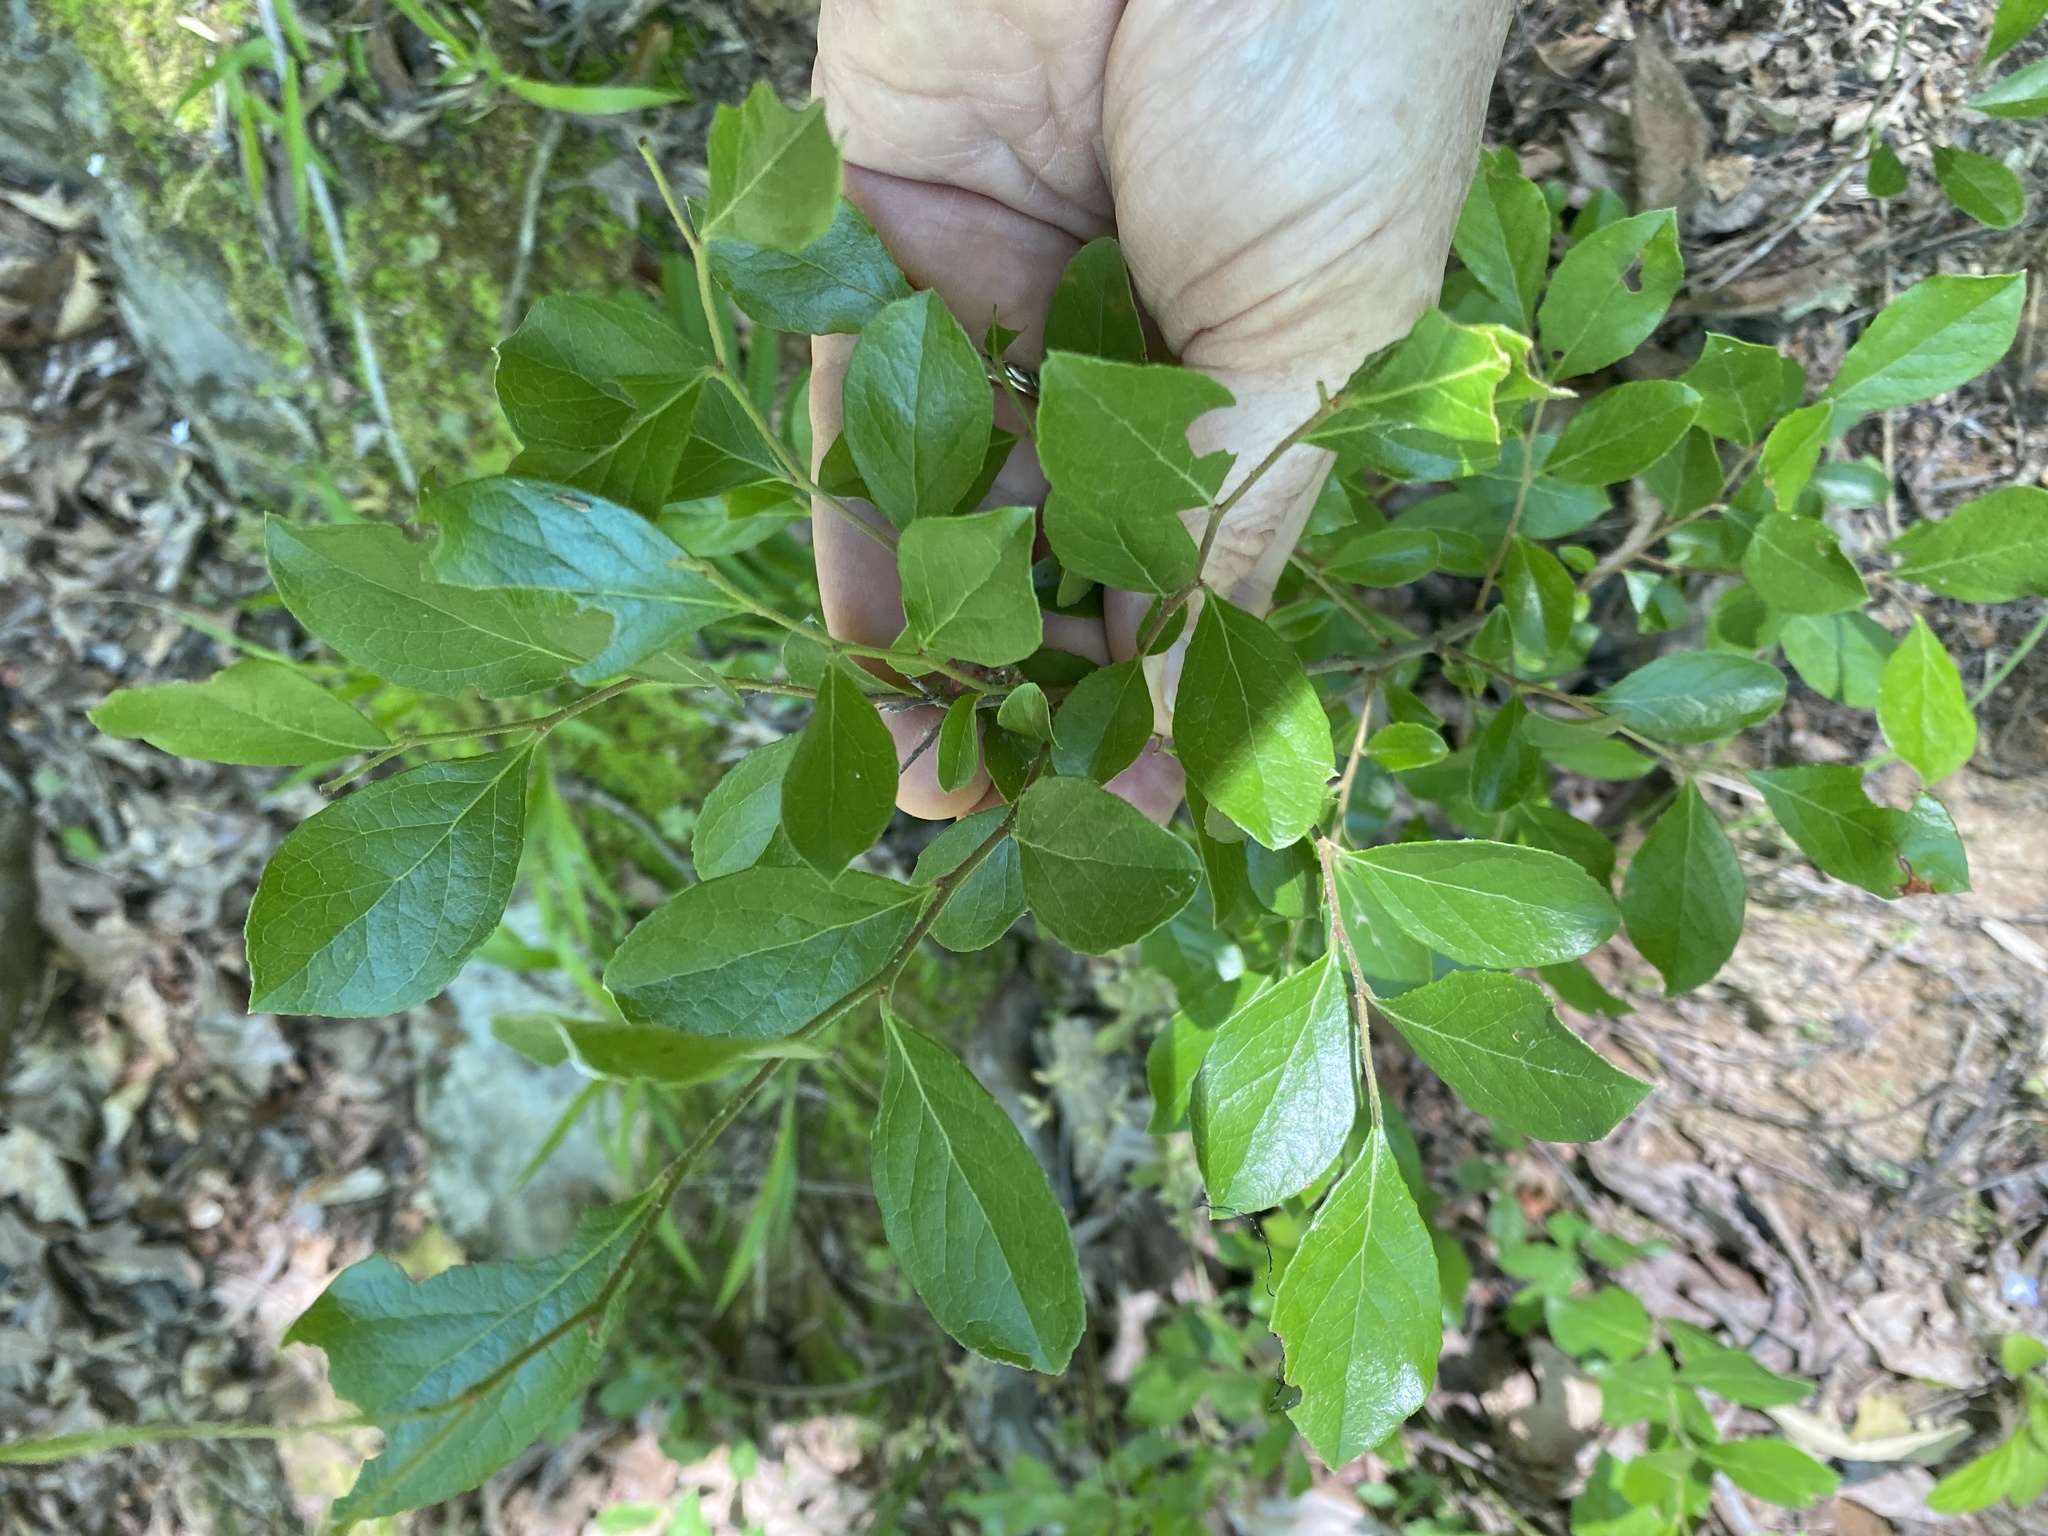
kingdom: Plantae
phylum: Tracheophyta
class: Magnoliopsida
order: Ericales
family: Ericaceae
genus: Vaccinium
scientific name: Vaccinium arboreum
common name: Farkleberry
